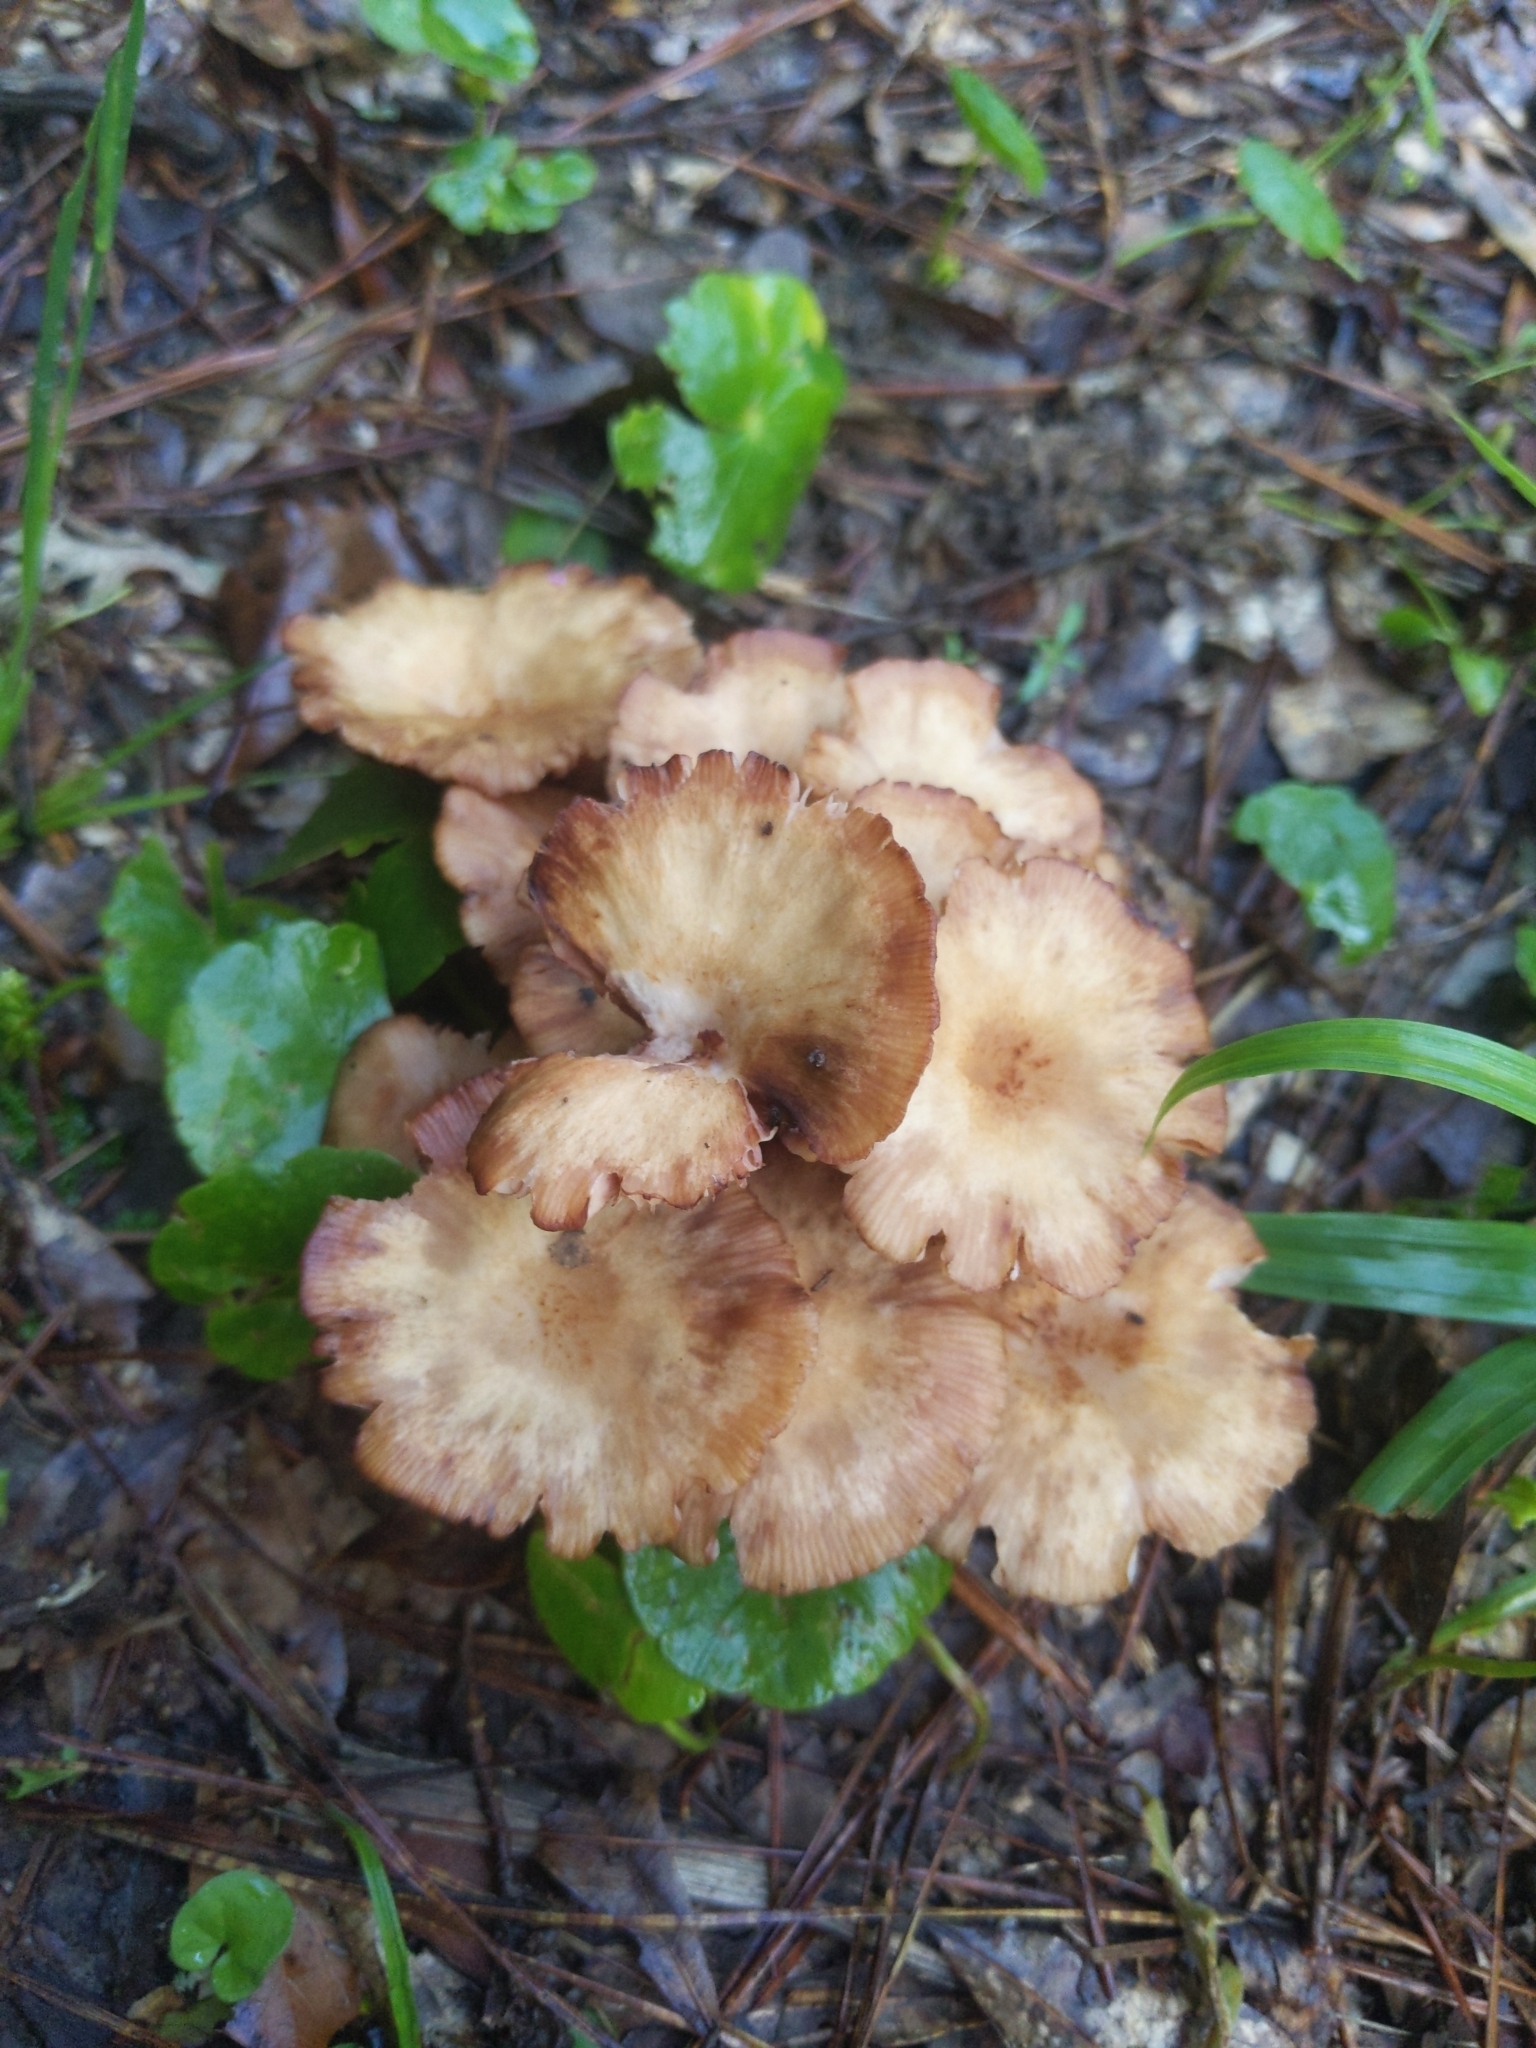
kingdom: Fungi
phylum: Basidiomycota
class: Agaricomycetes
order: Agaricales
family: Physalacriaceae
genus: Desarmillaria
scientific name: Desarmillaria caespitosa
